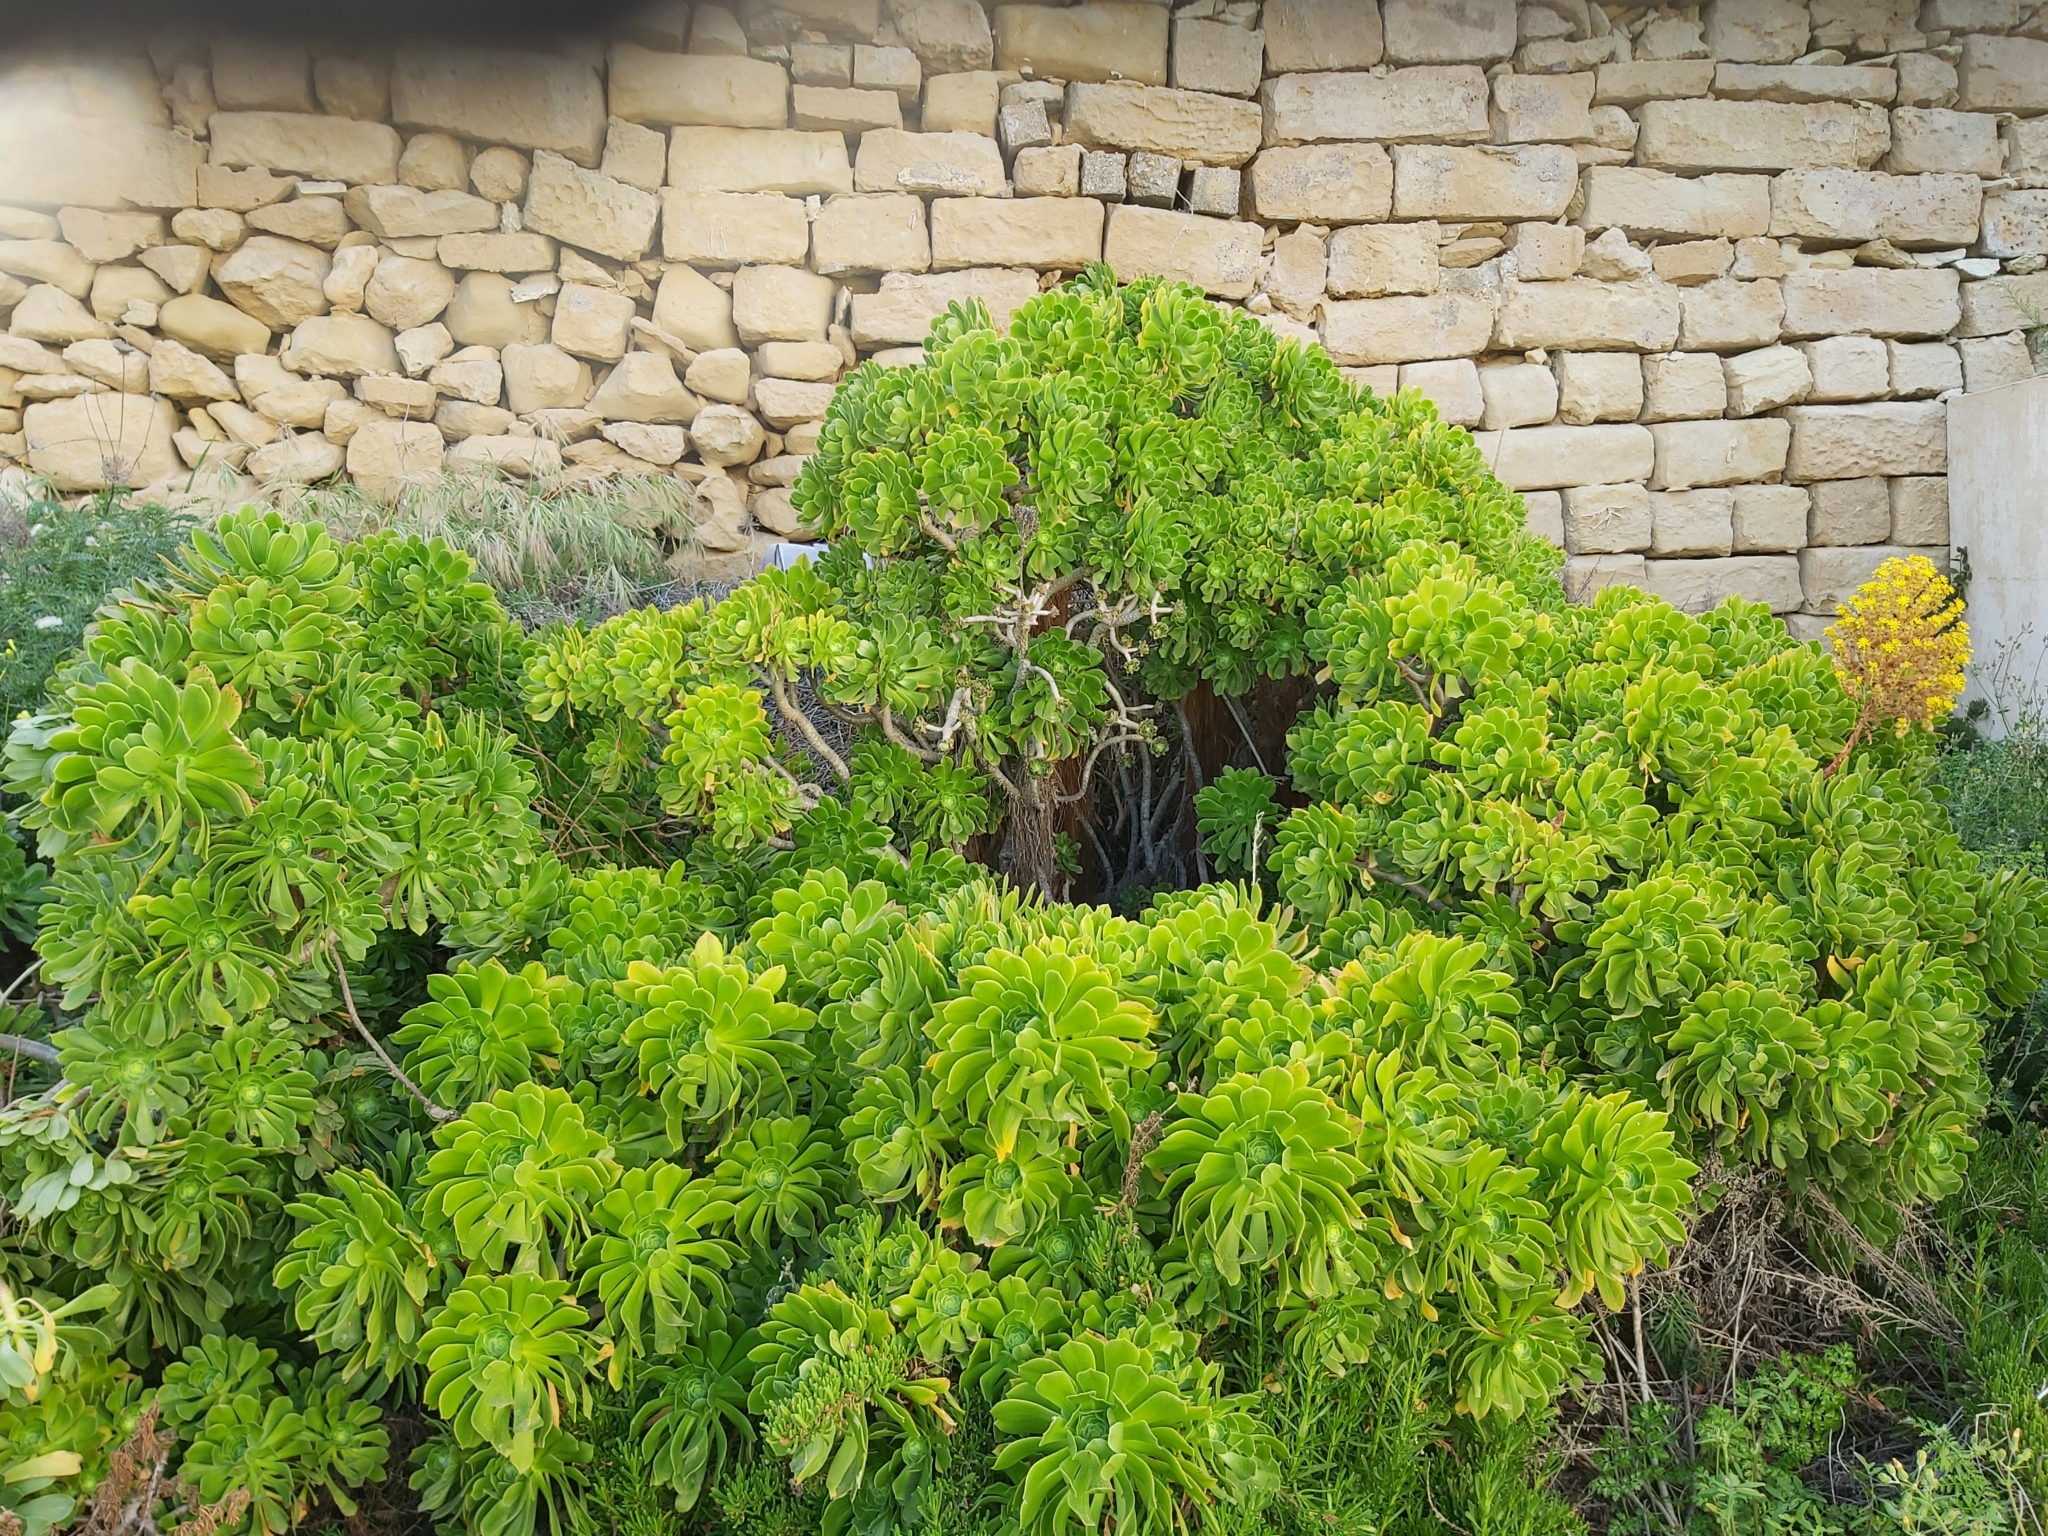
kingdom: Plantae
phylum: Tracheophyta
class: Magnoliopsida
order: Saxifragales
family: Crassulaceae
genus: Aeonium
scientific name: Aeonium arboreum
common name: Tree aeonium
